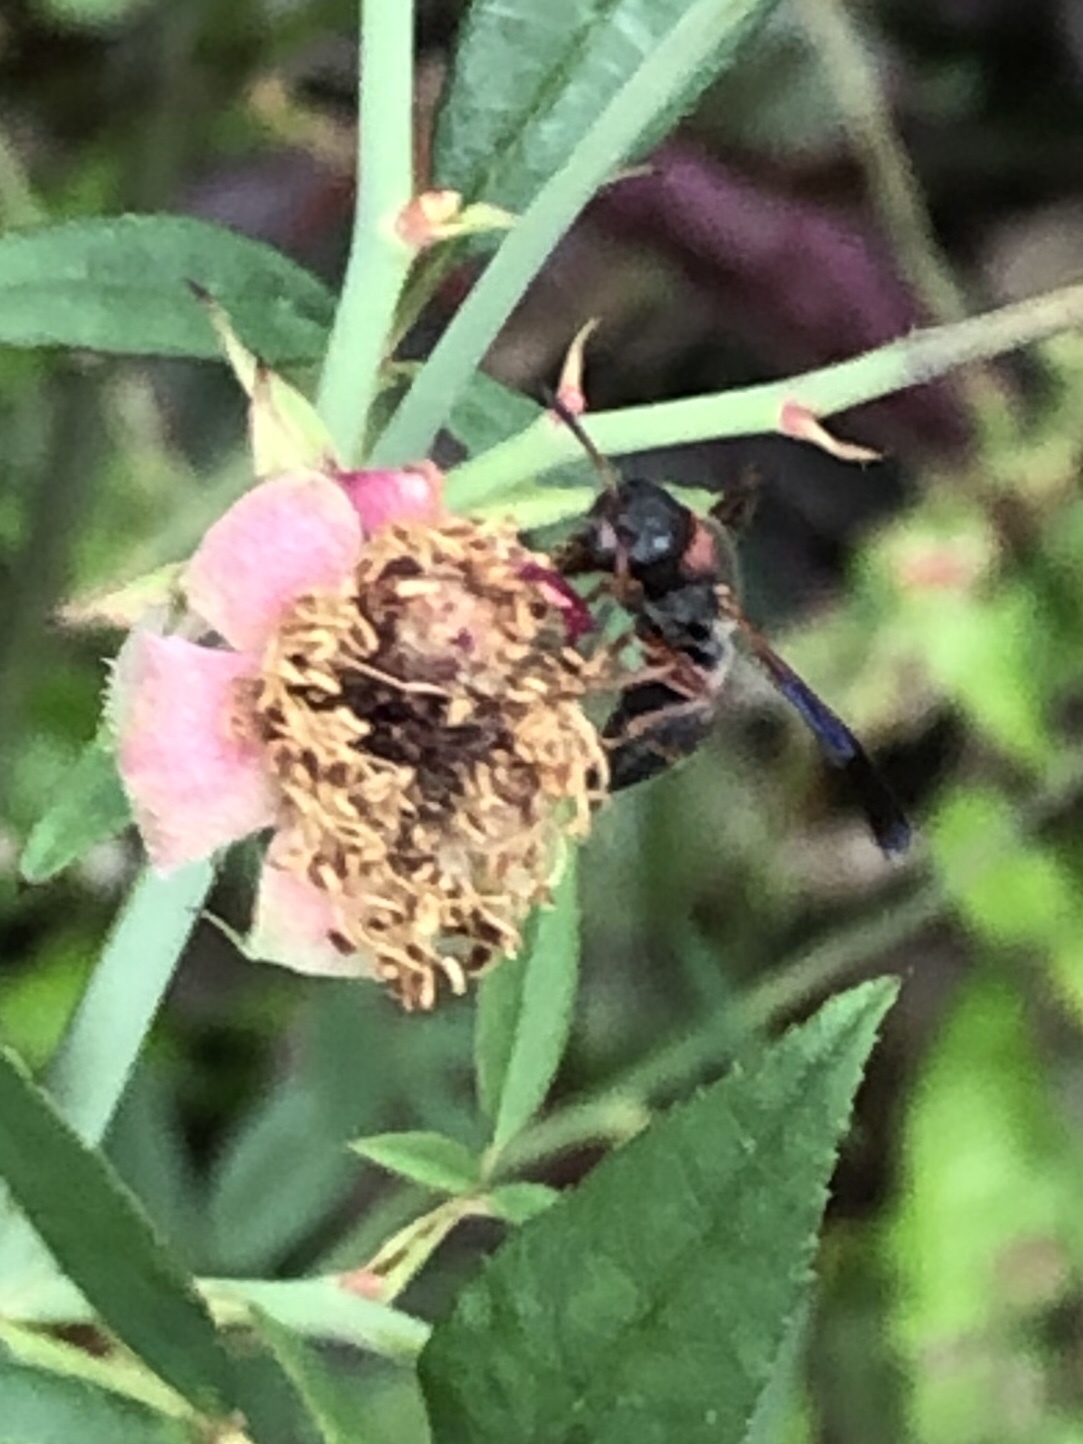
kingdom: Animalia
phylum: Arthropoda
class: Insecta
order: Hymenoptera
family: Eumenidae
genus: Pachodynerus
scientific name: Pachodynerus erynnis
